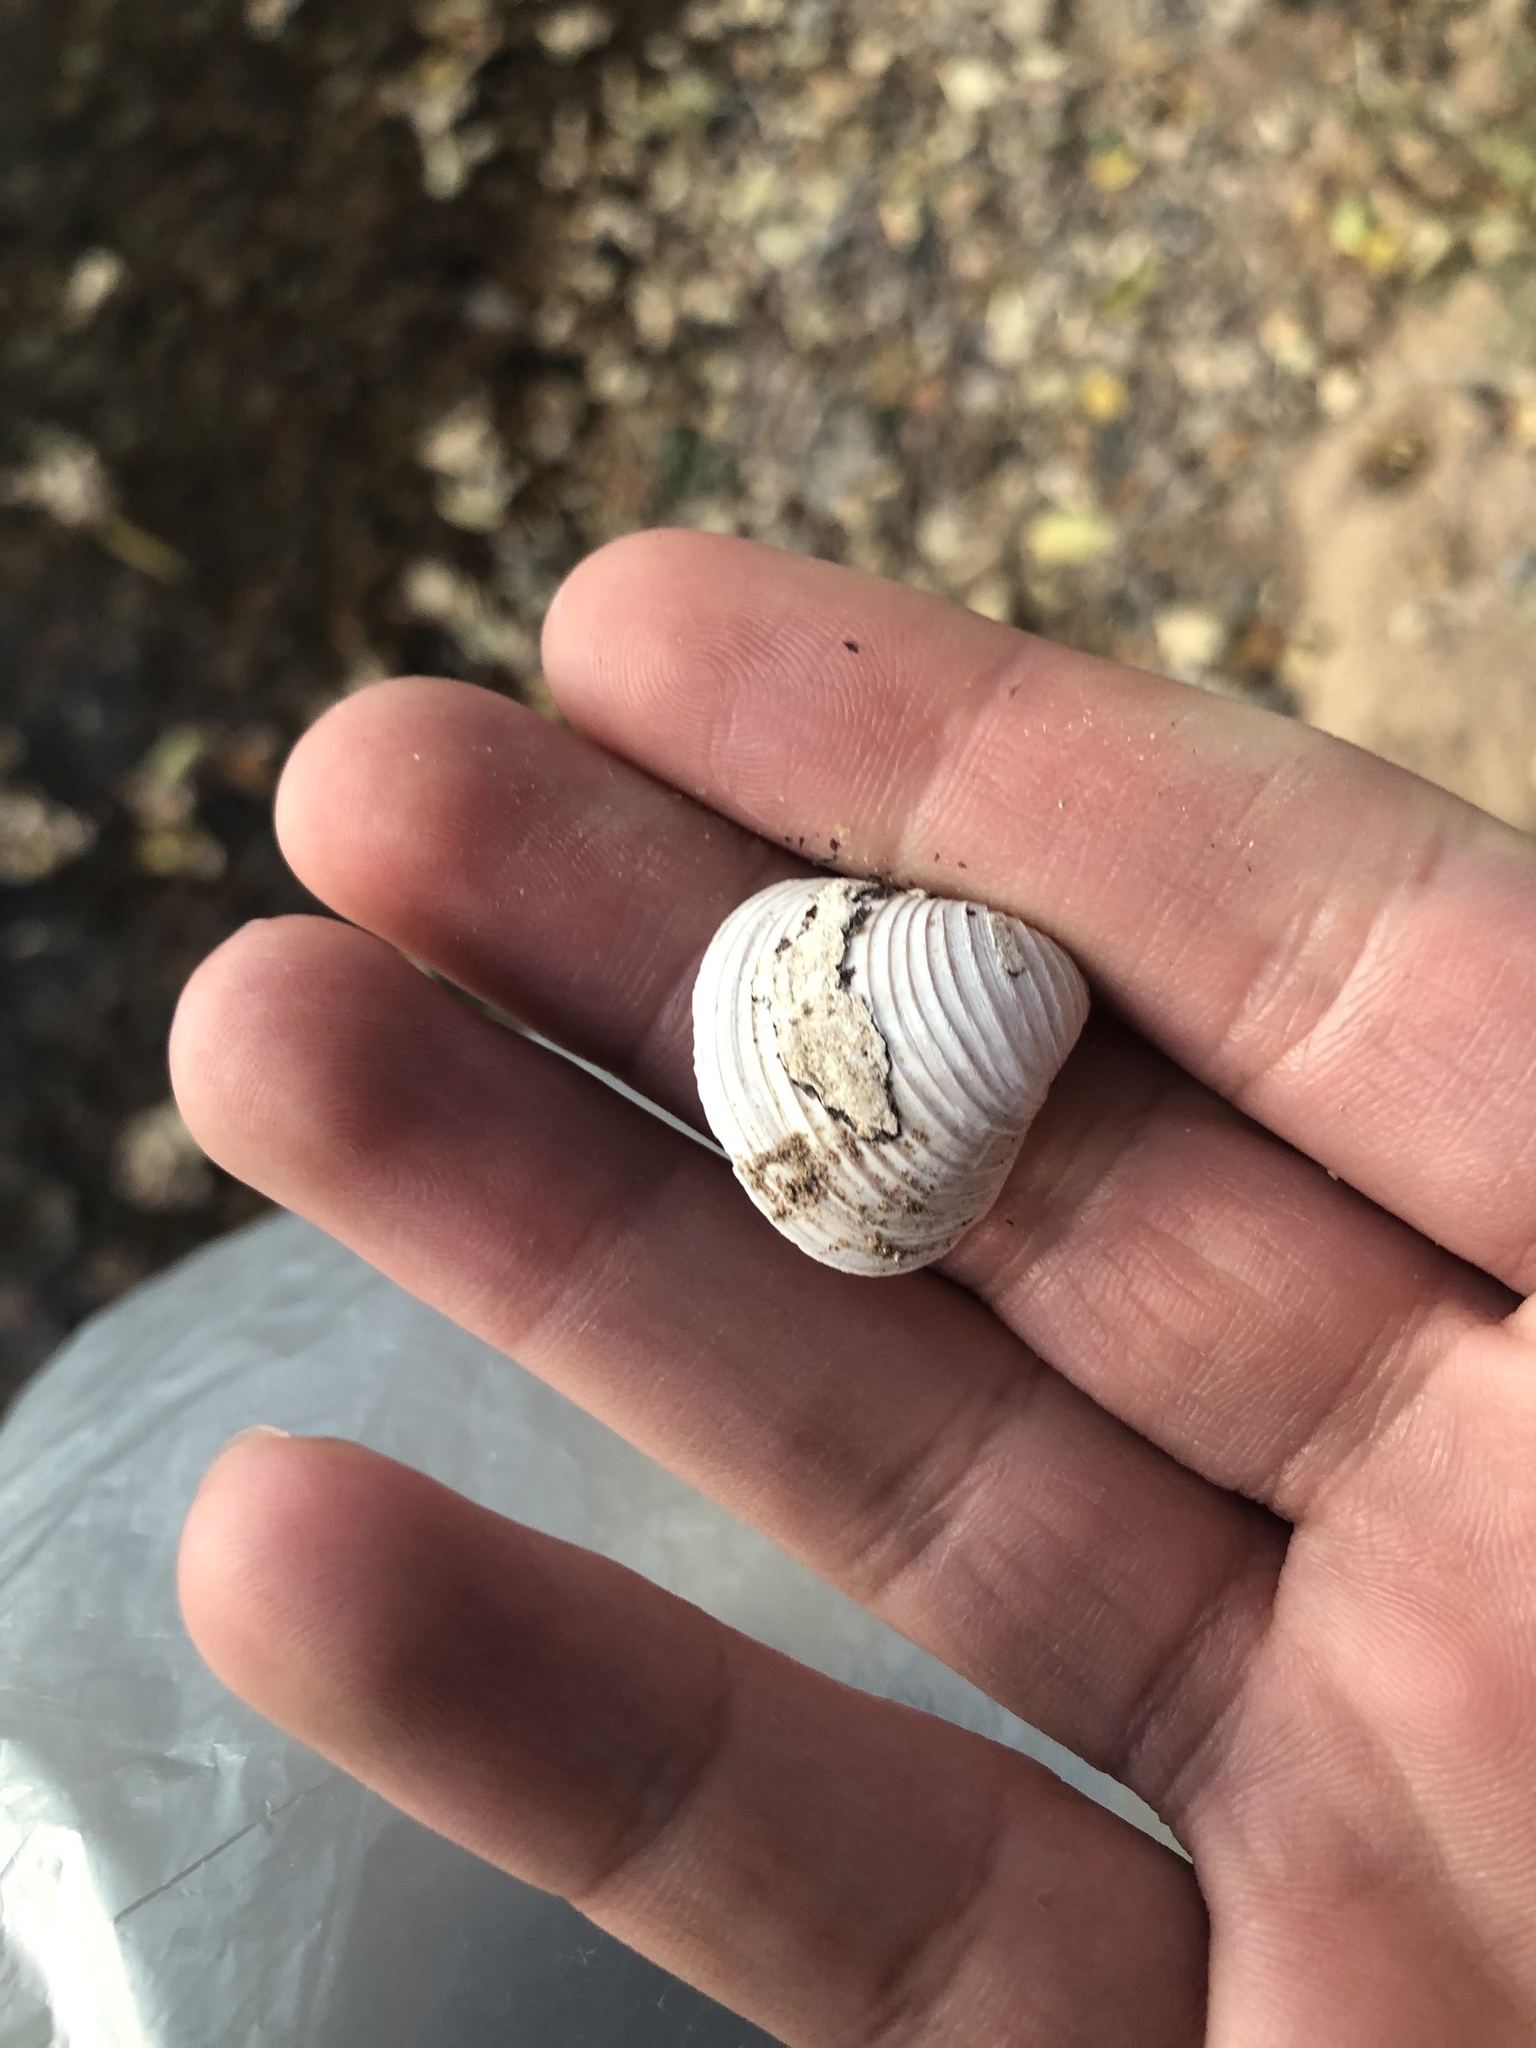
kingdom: Animalia
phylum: Mollusca
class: Bivalvia
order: Venerida
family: Cyrenidae
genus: Corbicula
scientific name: Corbicula fluminea
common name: Asian clam
